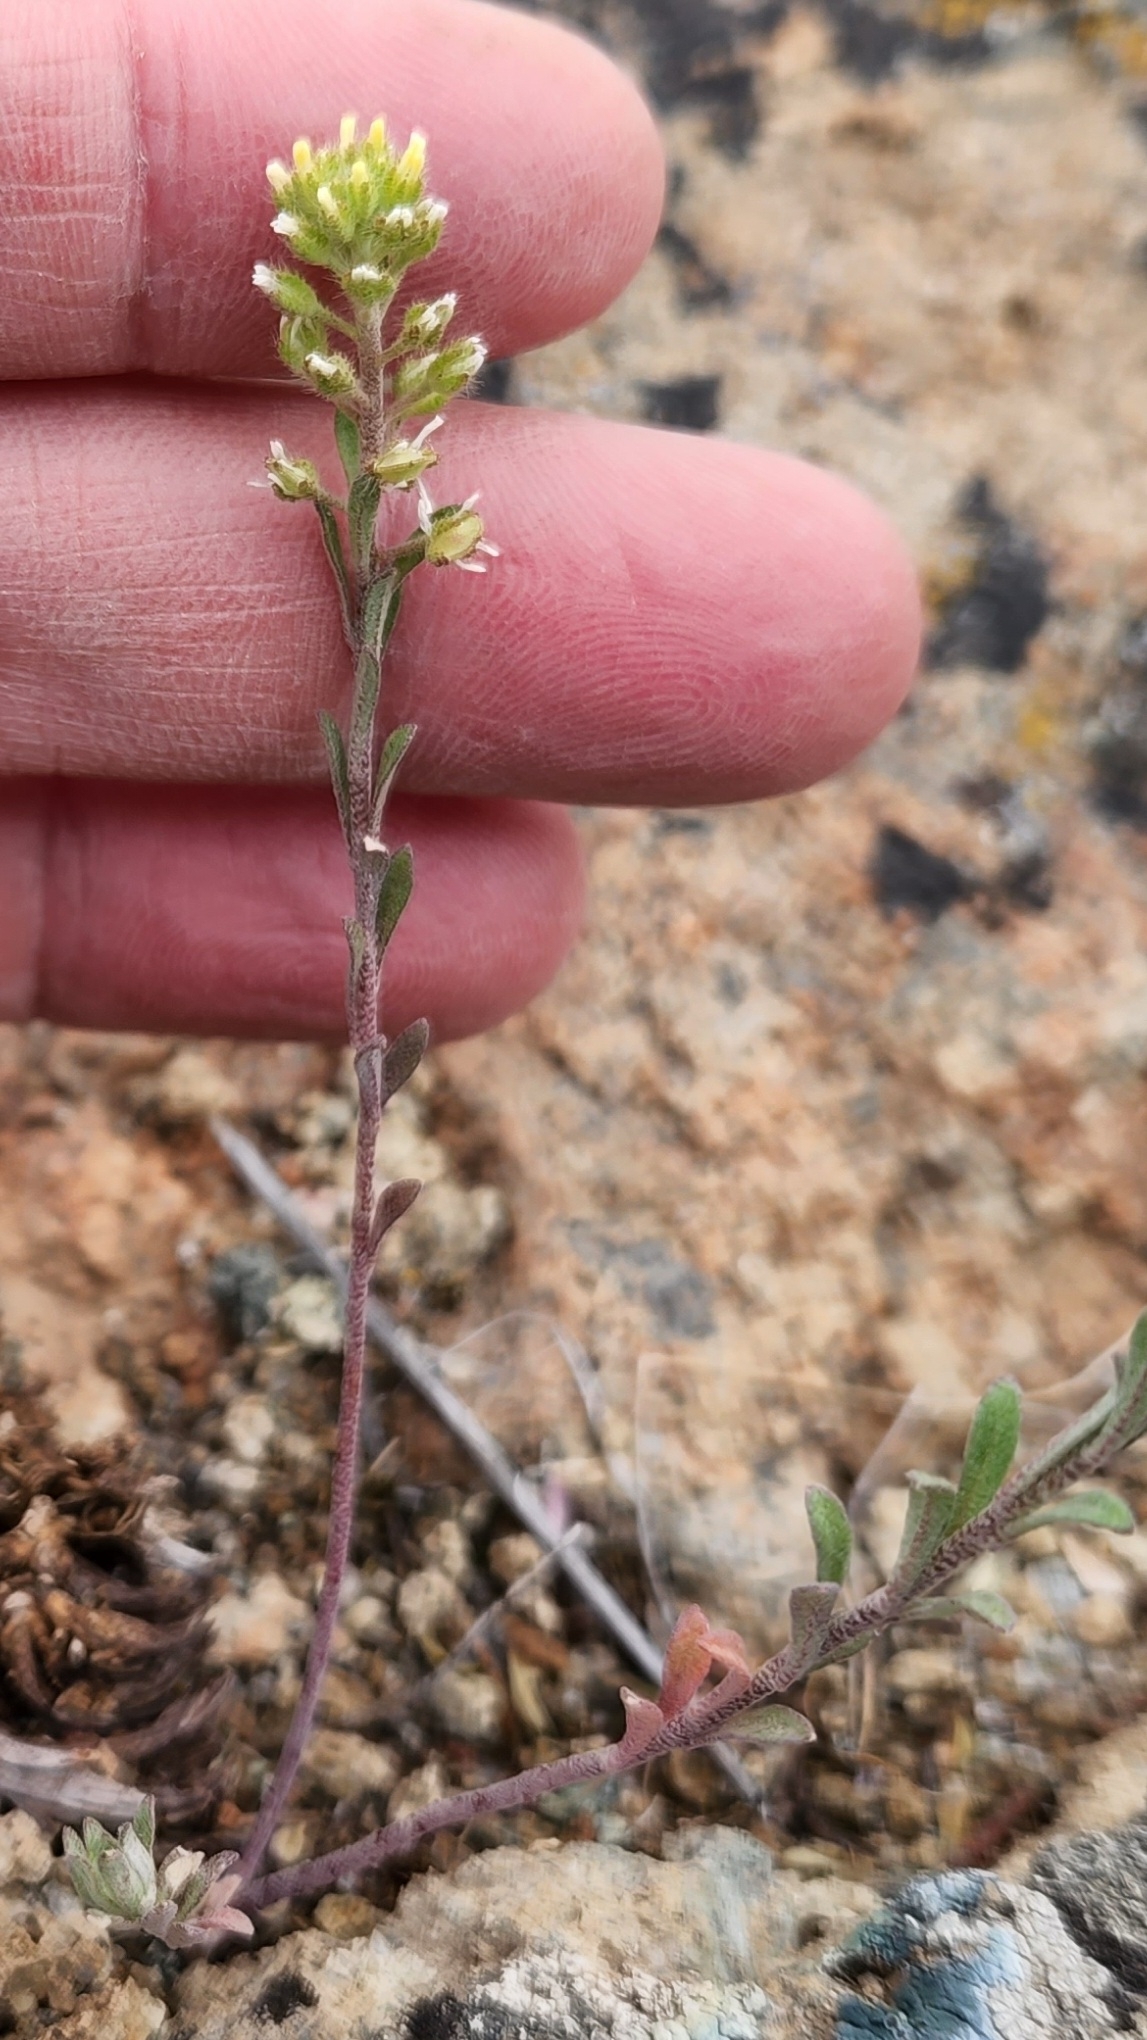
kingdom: Plantae
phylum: Tracheophyta
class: Magnoliopsida
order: Brassicales
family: Brassicaceae
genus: Alyssum
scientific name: Alyssum turkestanicum
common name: Desert alyssum
